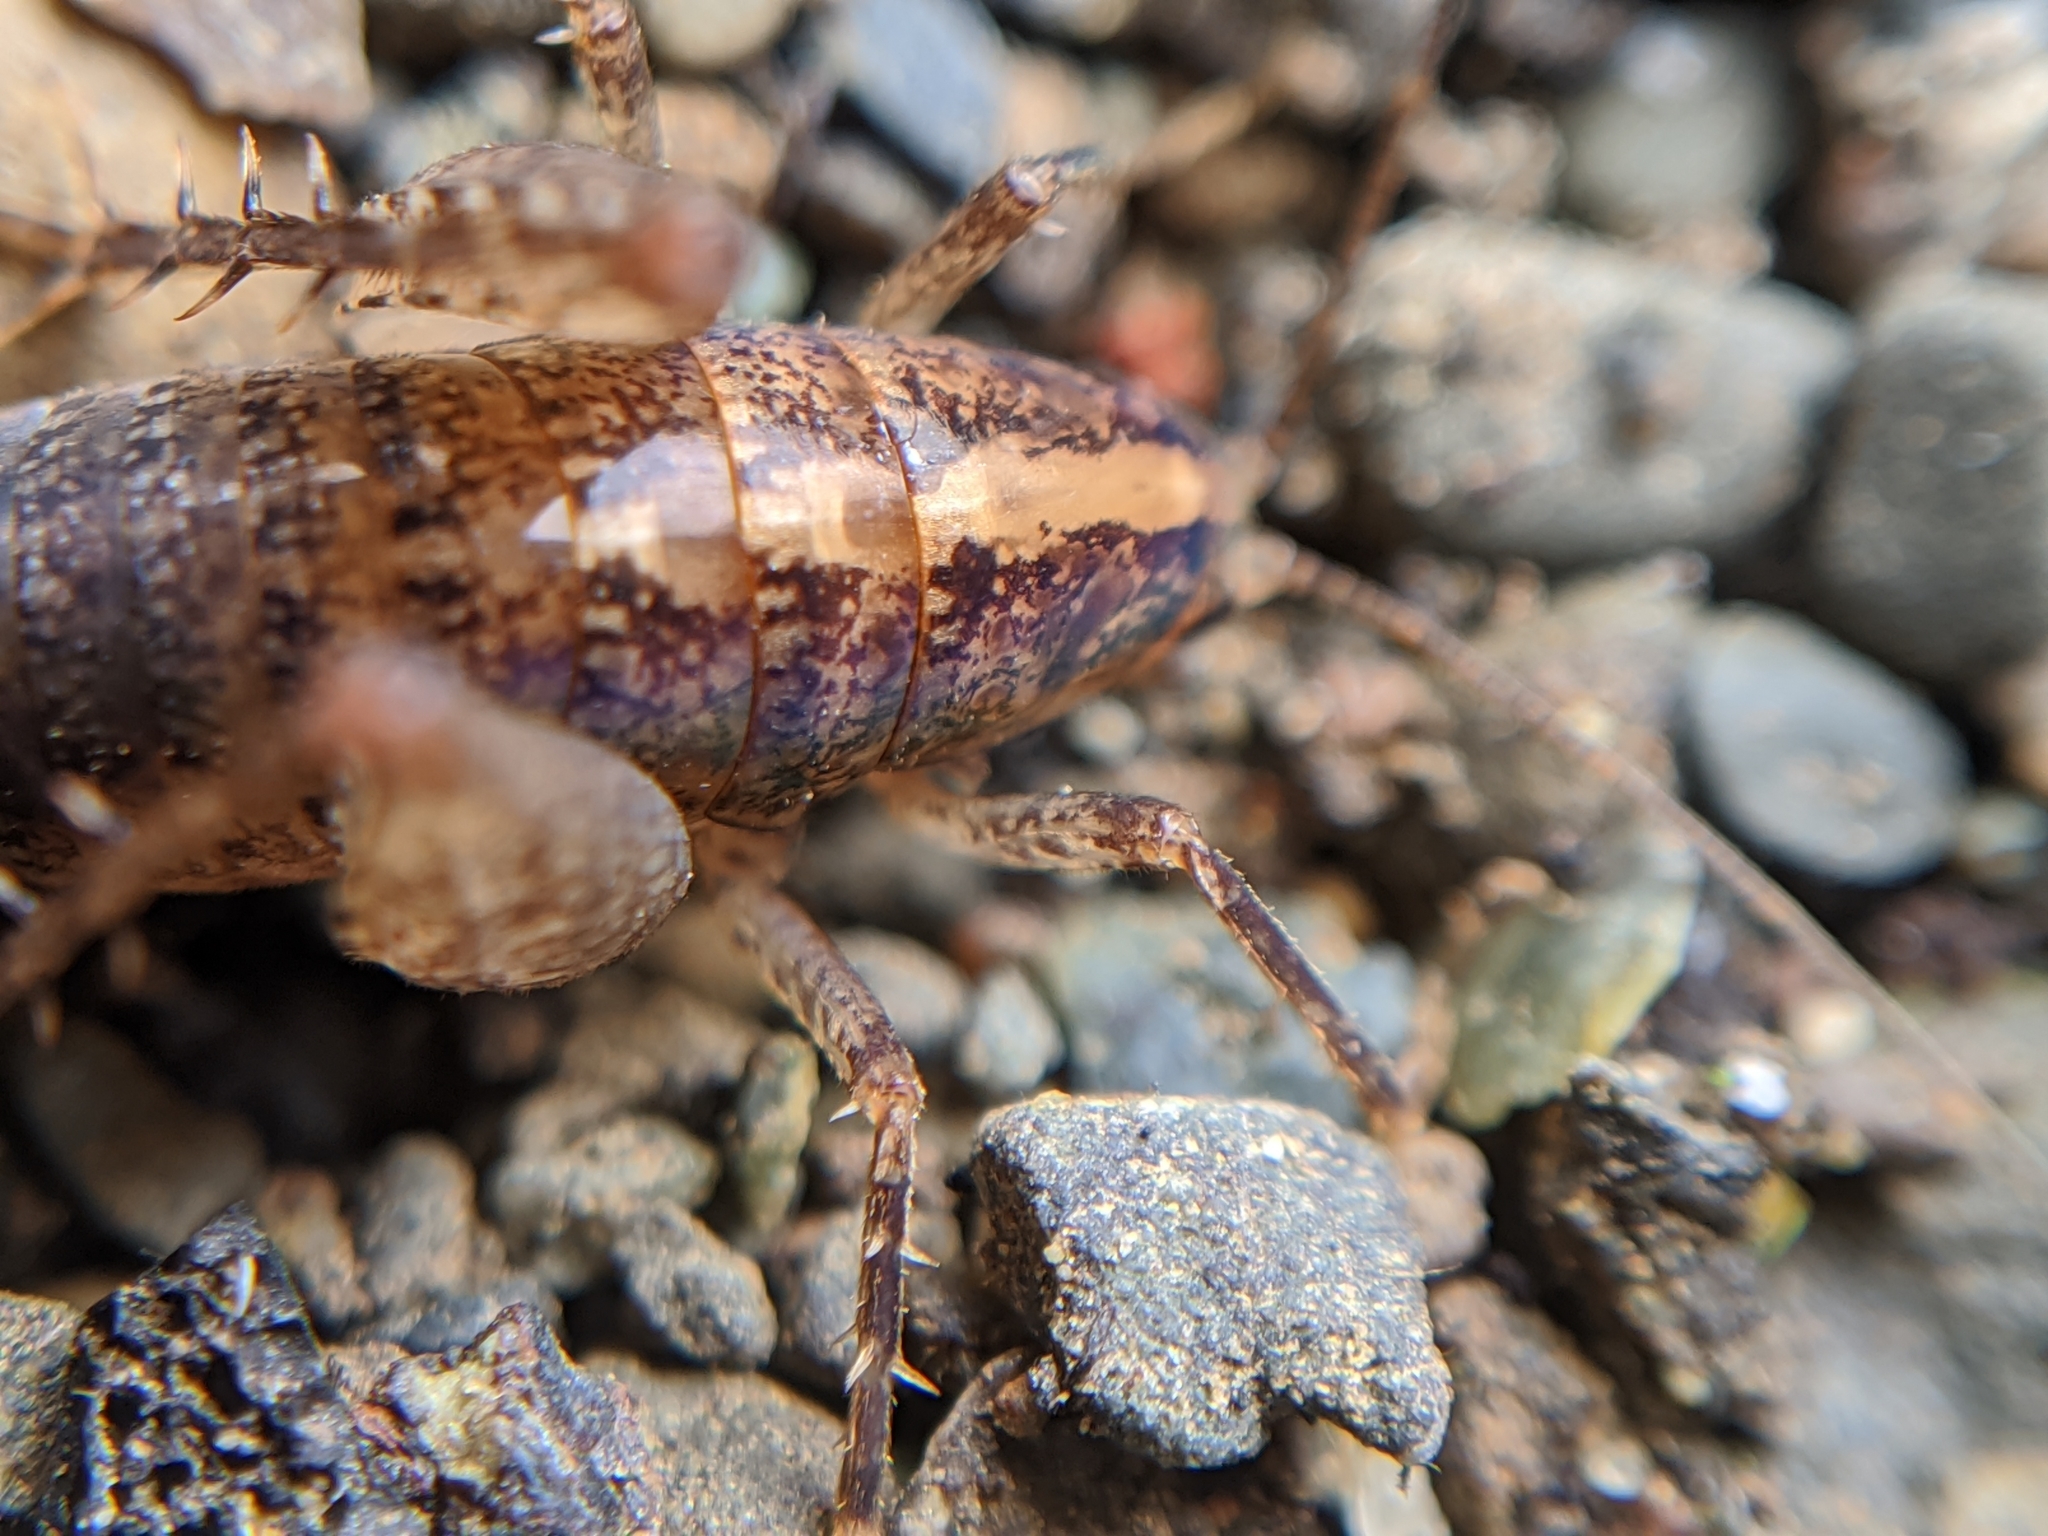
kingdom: Animalia
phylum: Arthropoda
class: Insecta
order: Orthoptera
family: Rhaphidophoridae
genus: Pristoceuthophilus
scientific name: Pristoceuthophilus
